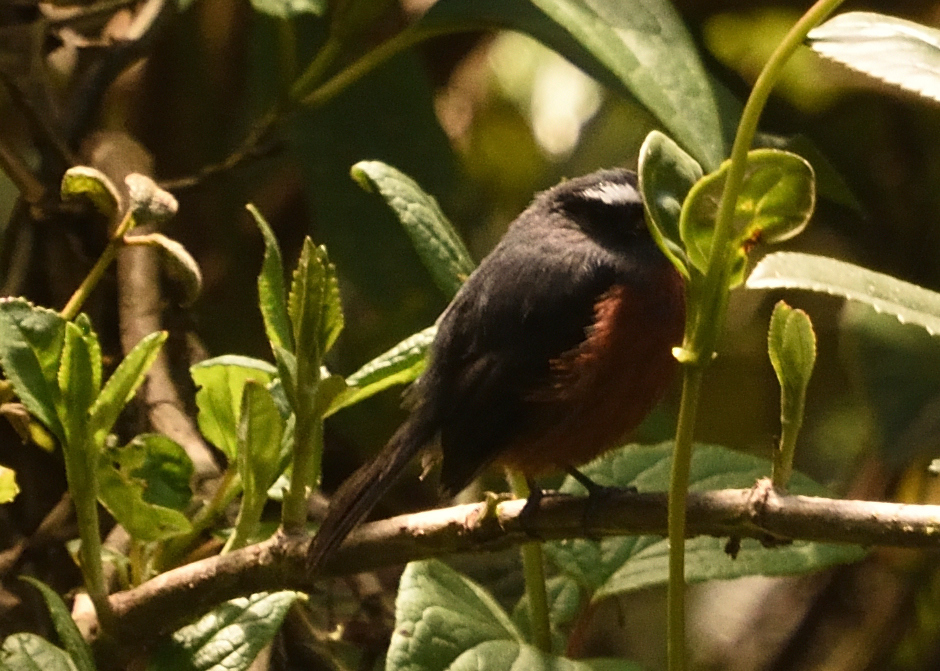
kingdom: Animalia
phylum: Chordata
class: Aves
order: Passeriformes
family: Tyrannidae
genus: Ochthoeca
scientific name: Ochthoeca cinnamomeiventris
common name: Slaty-backed chat-tyrant
